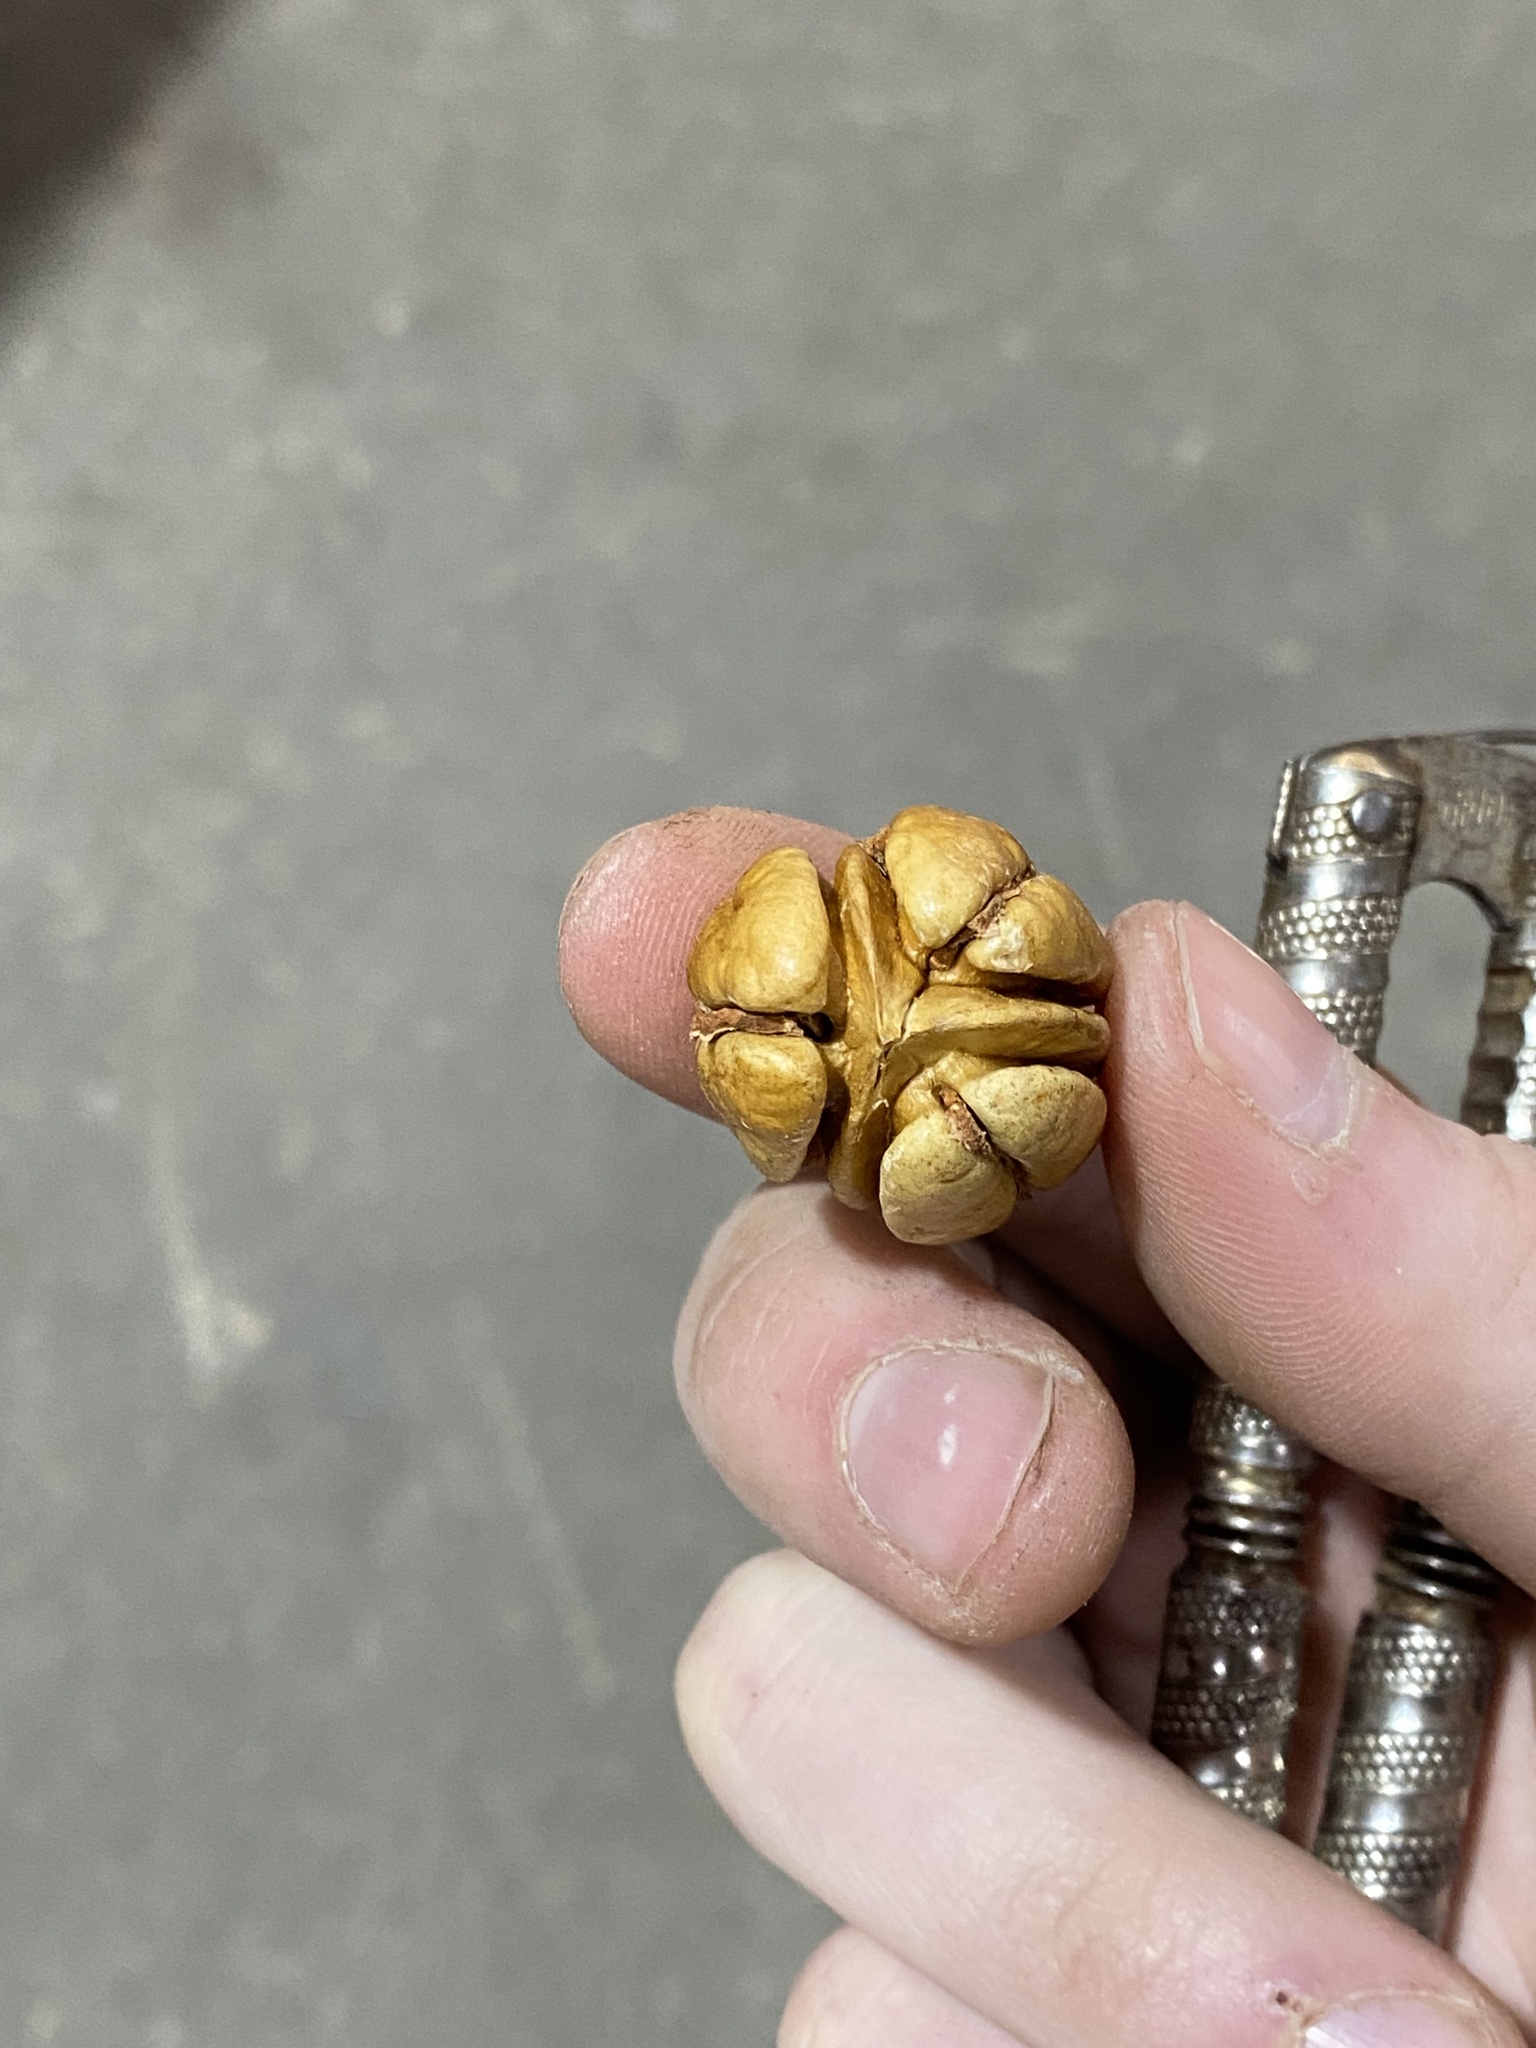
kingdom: Plantae
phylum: Tracheophyta
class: Magnoliopsida
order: Fagales
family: Juglandaceae
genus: Carya
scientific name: Carya illinoinensis
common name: Pecan
